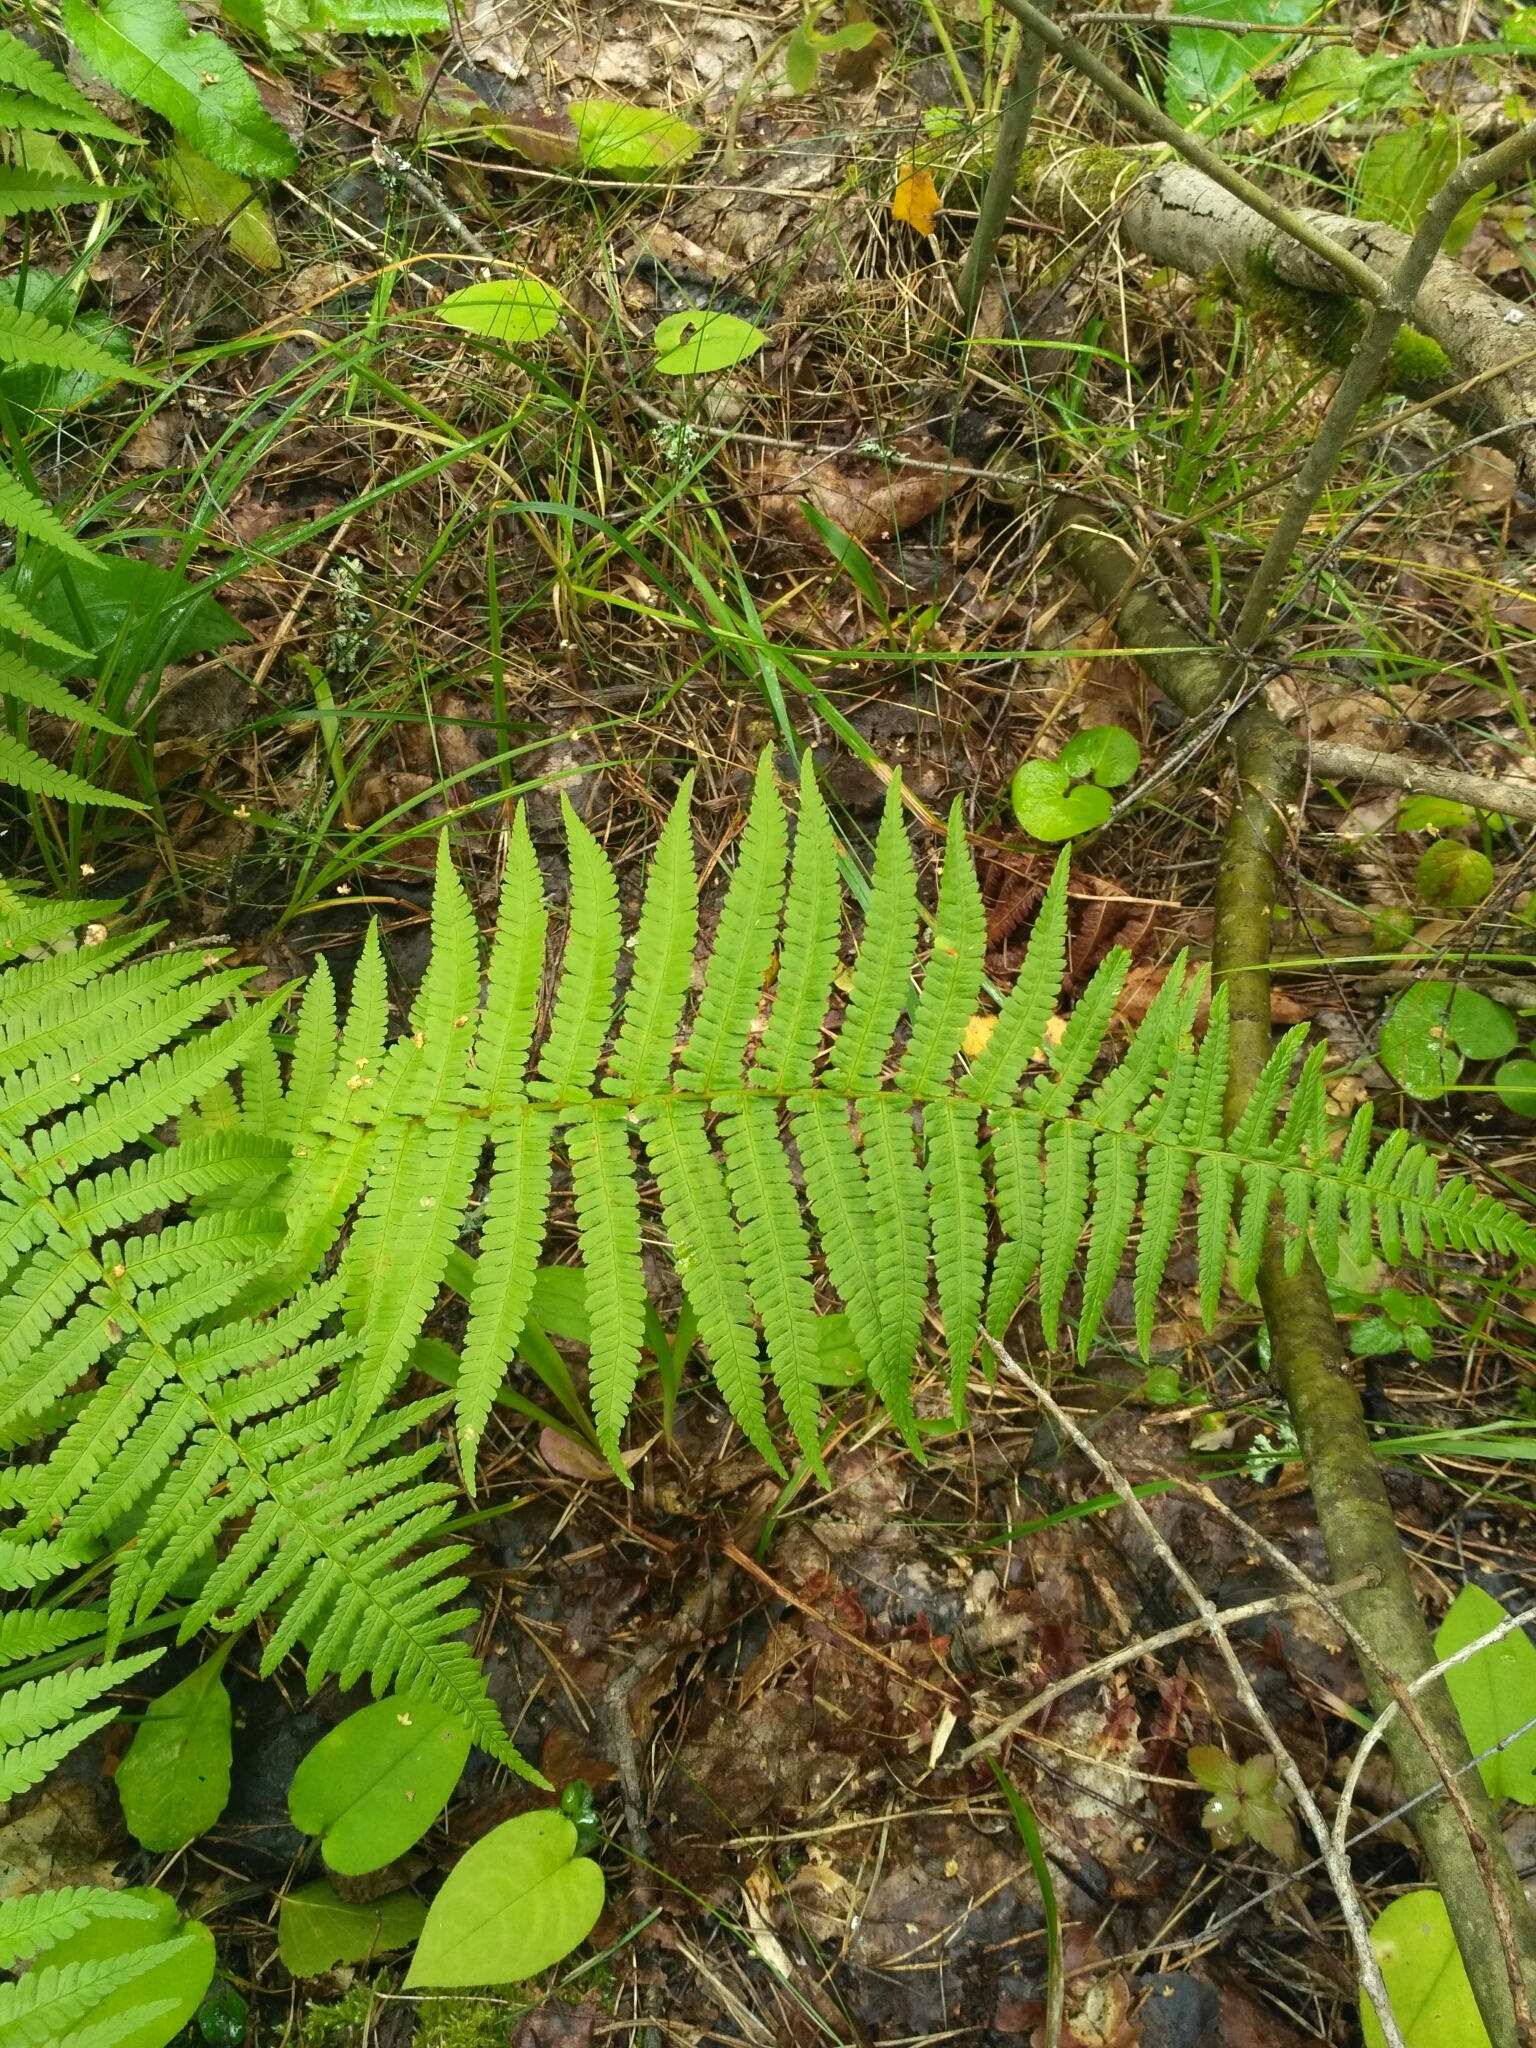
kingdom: Plantae
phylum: Tracheophyta
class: Polypodiopsida
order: Polypodiales
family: Dryopteridaceae
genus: Dryopteris
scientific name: Dryopteris filix-mas
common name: Male fern
